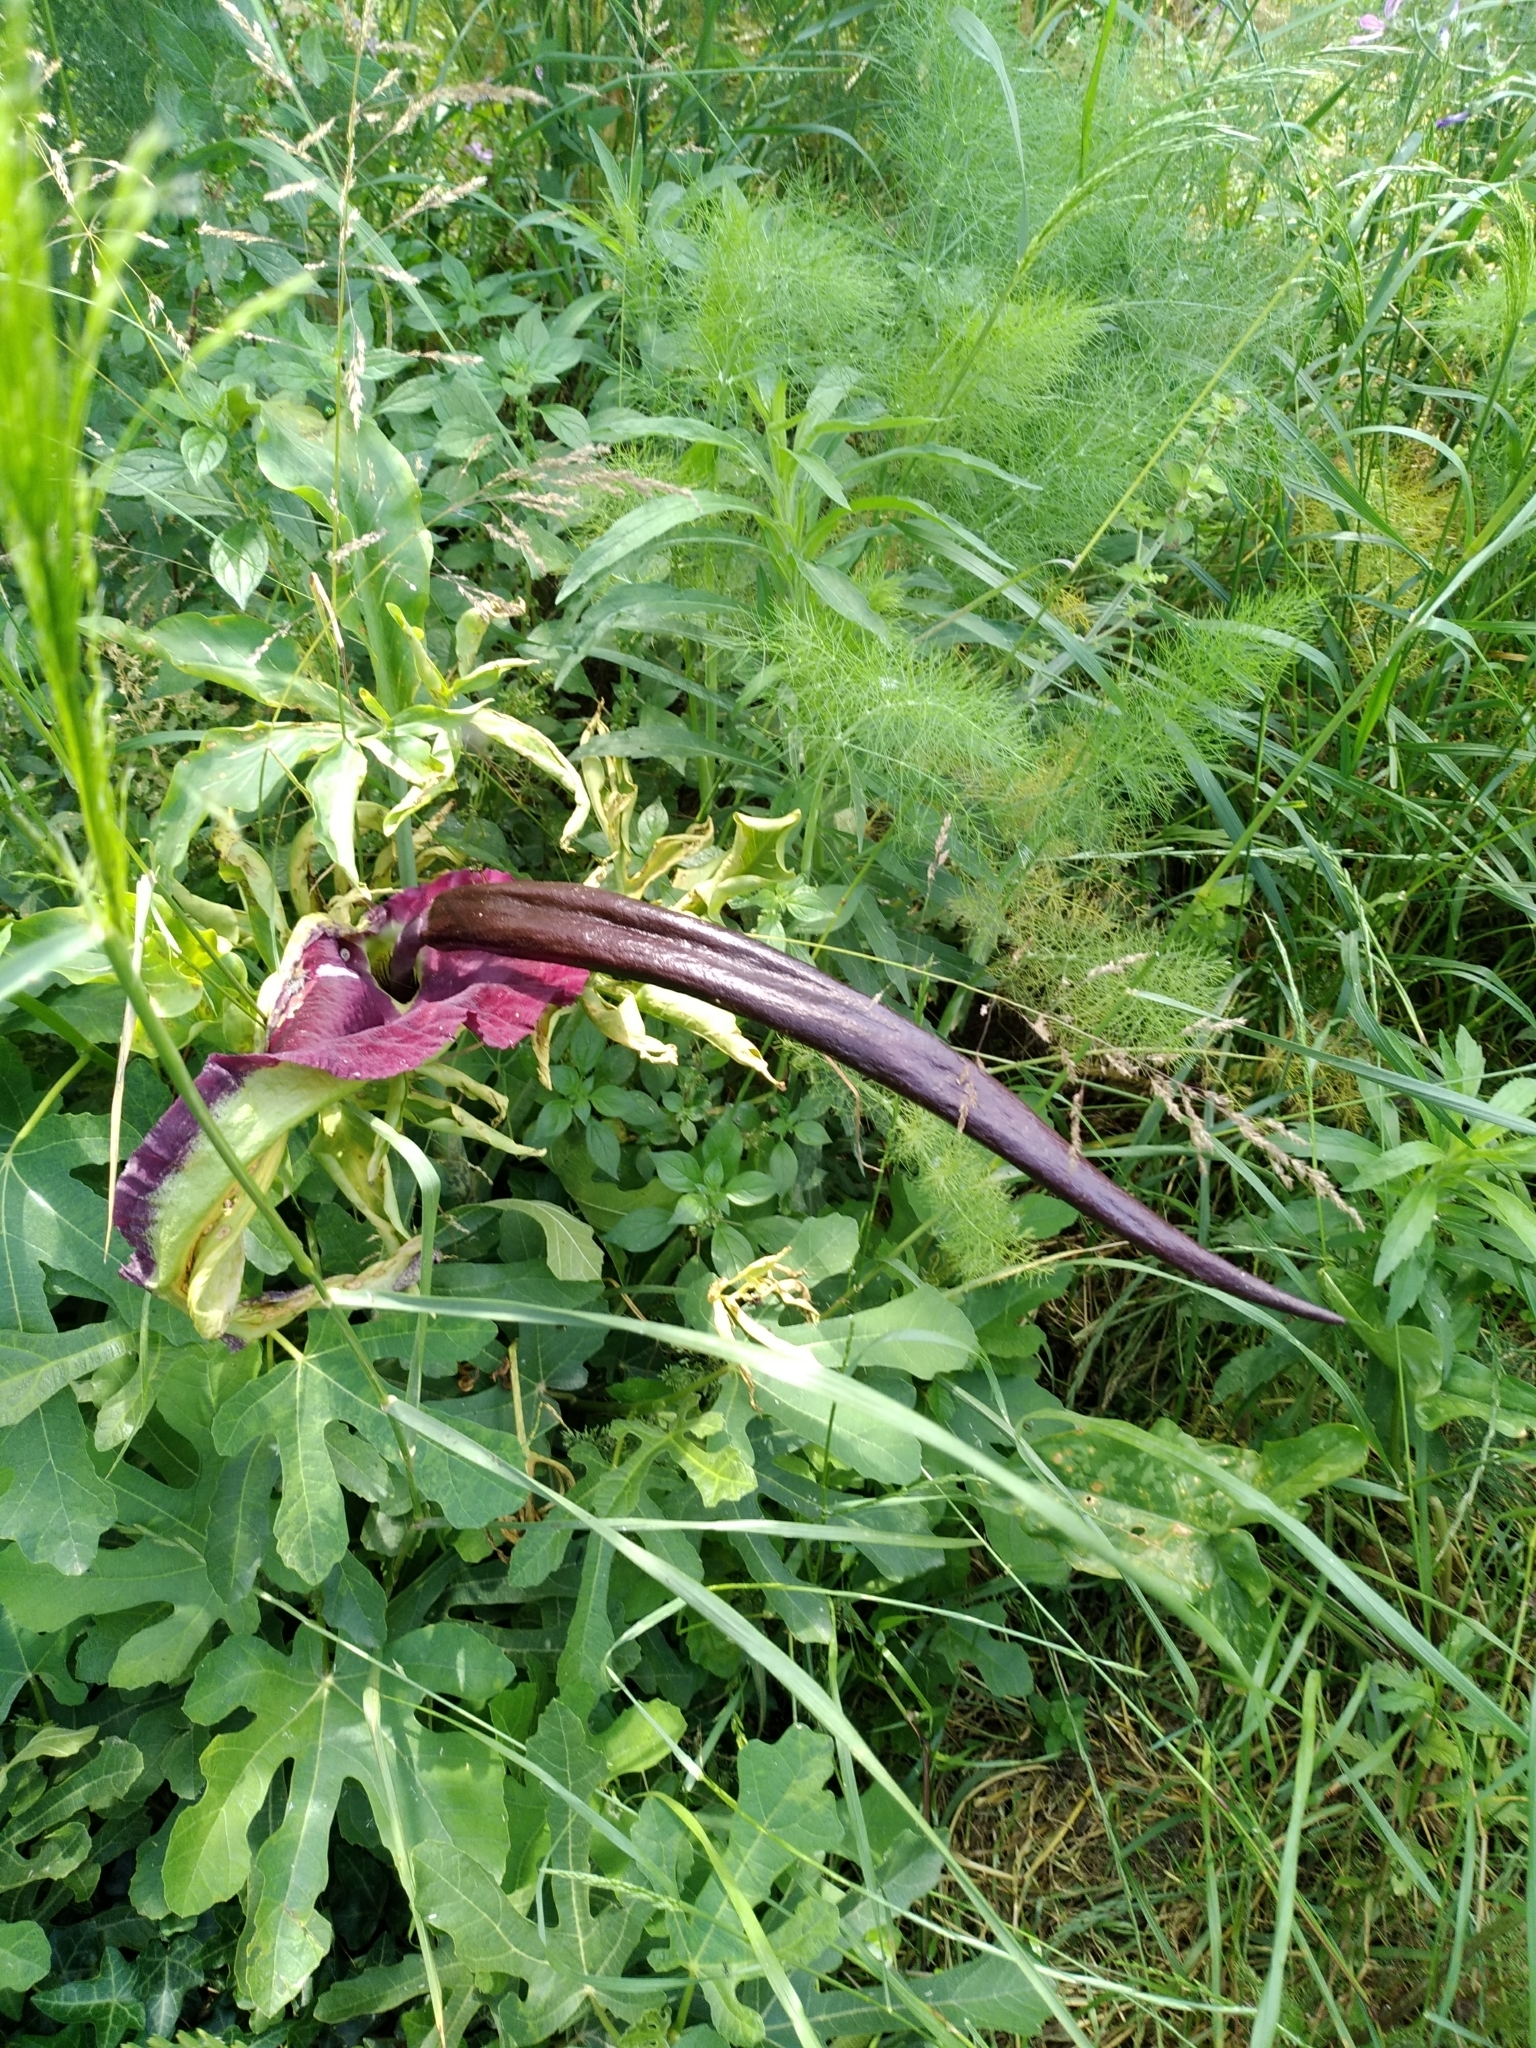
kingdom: Plantae
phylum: Tracheophyta
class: Liliopsida
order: Alismatales
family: Araceae
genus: Dracunculus
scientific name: Dracunculus vulgaris
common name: Dragon arum
